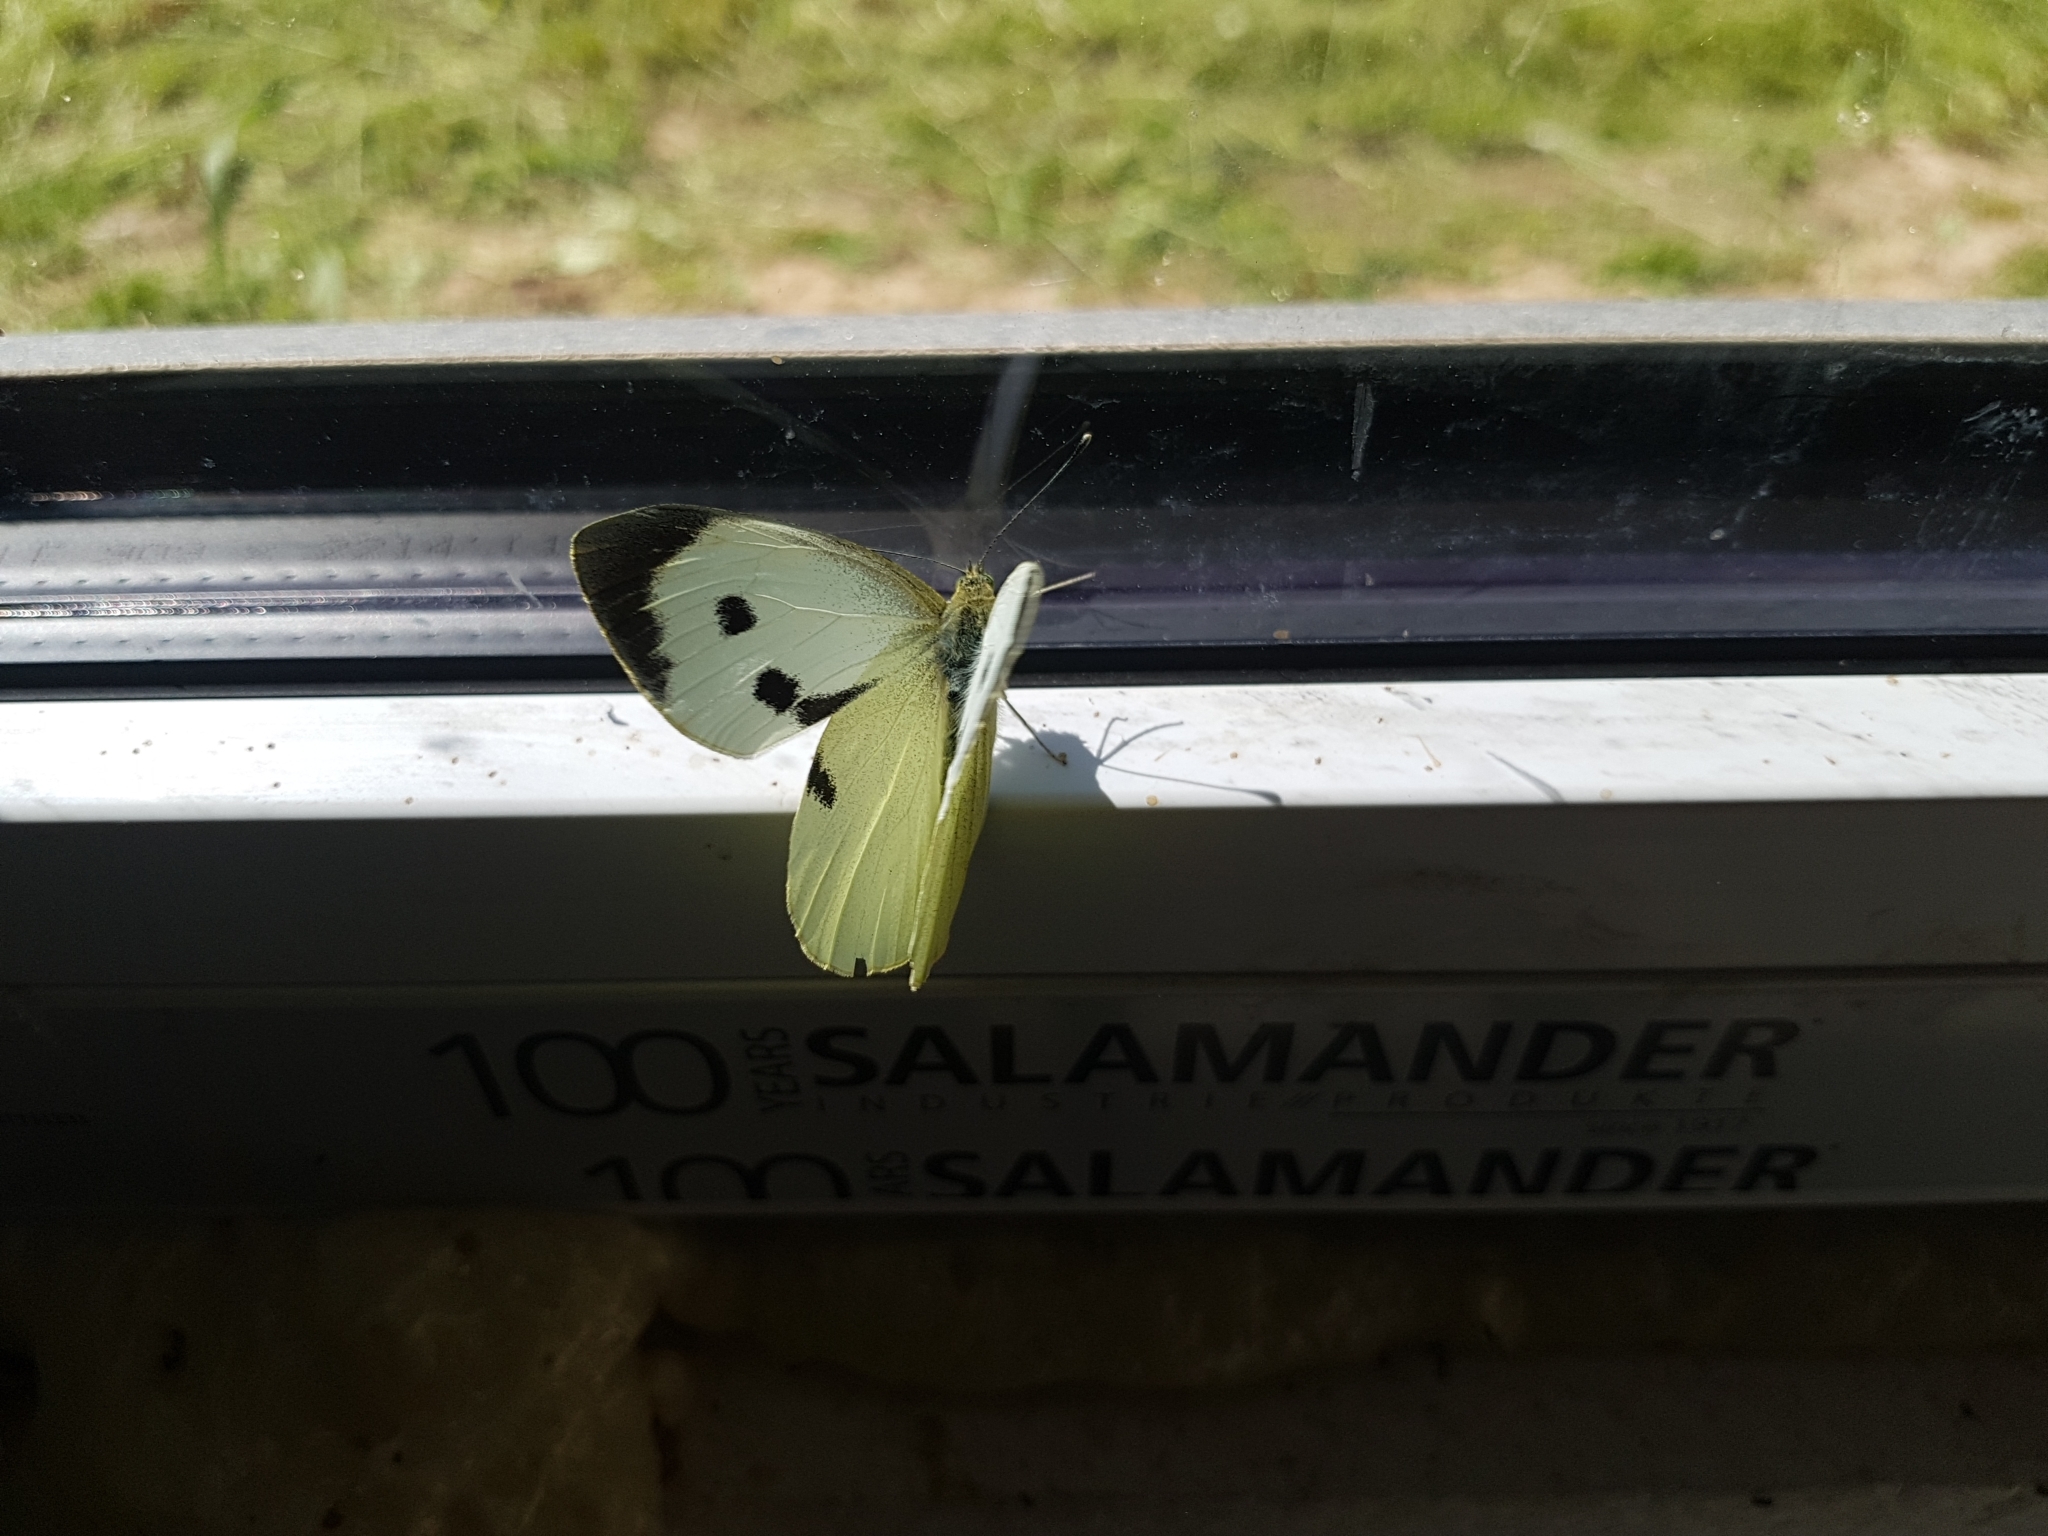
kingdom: Animalia
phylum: Arthropoda
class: Insecta
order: Lepidoptera
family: Pieridae
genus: Pieris
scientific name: Pieris brassicae
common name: Large white
